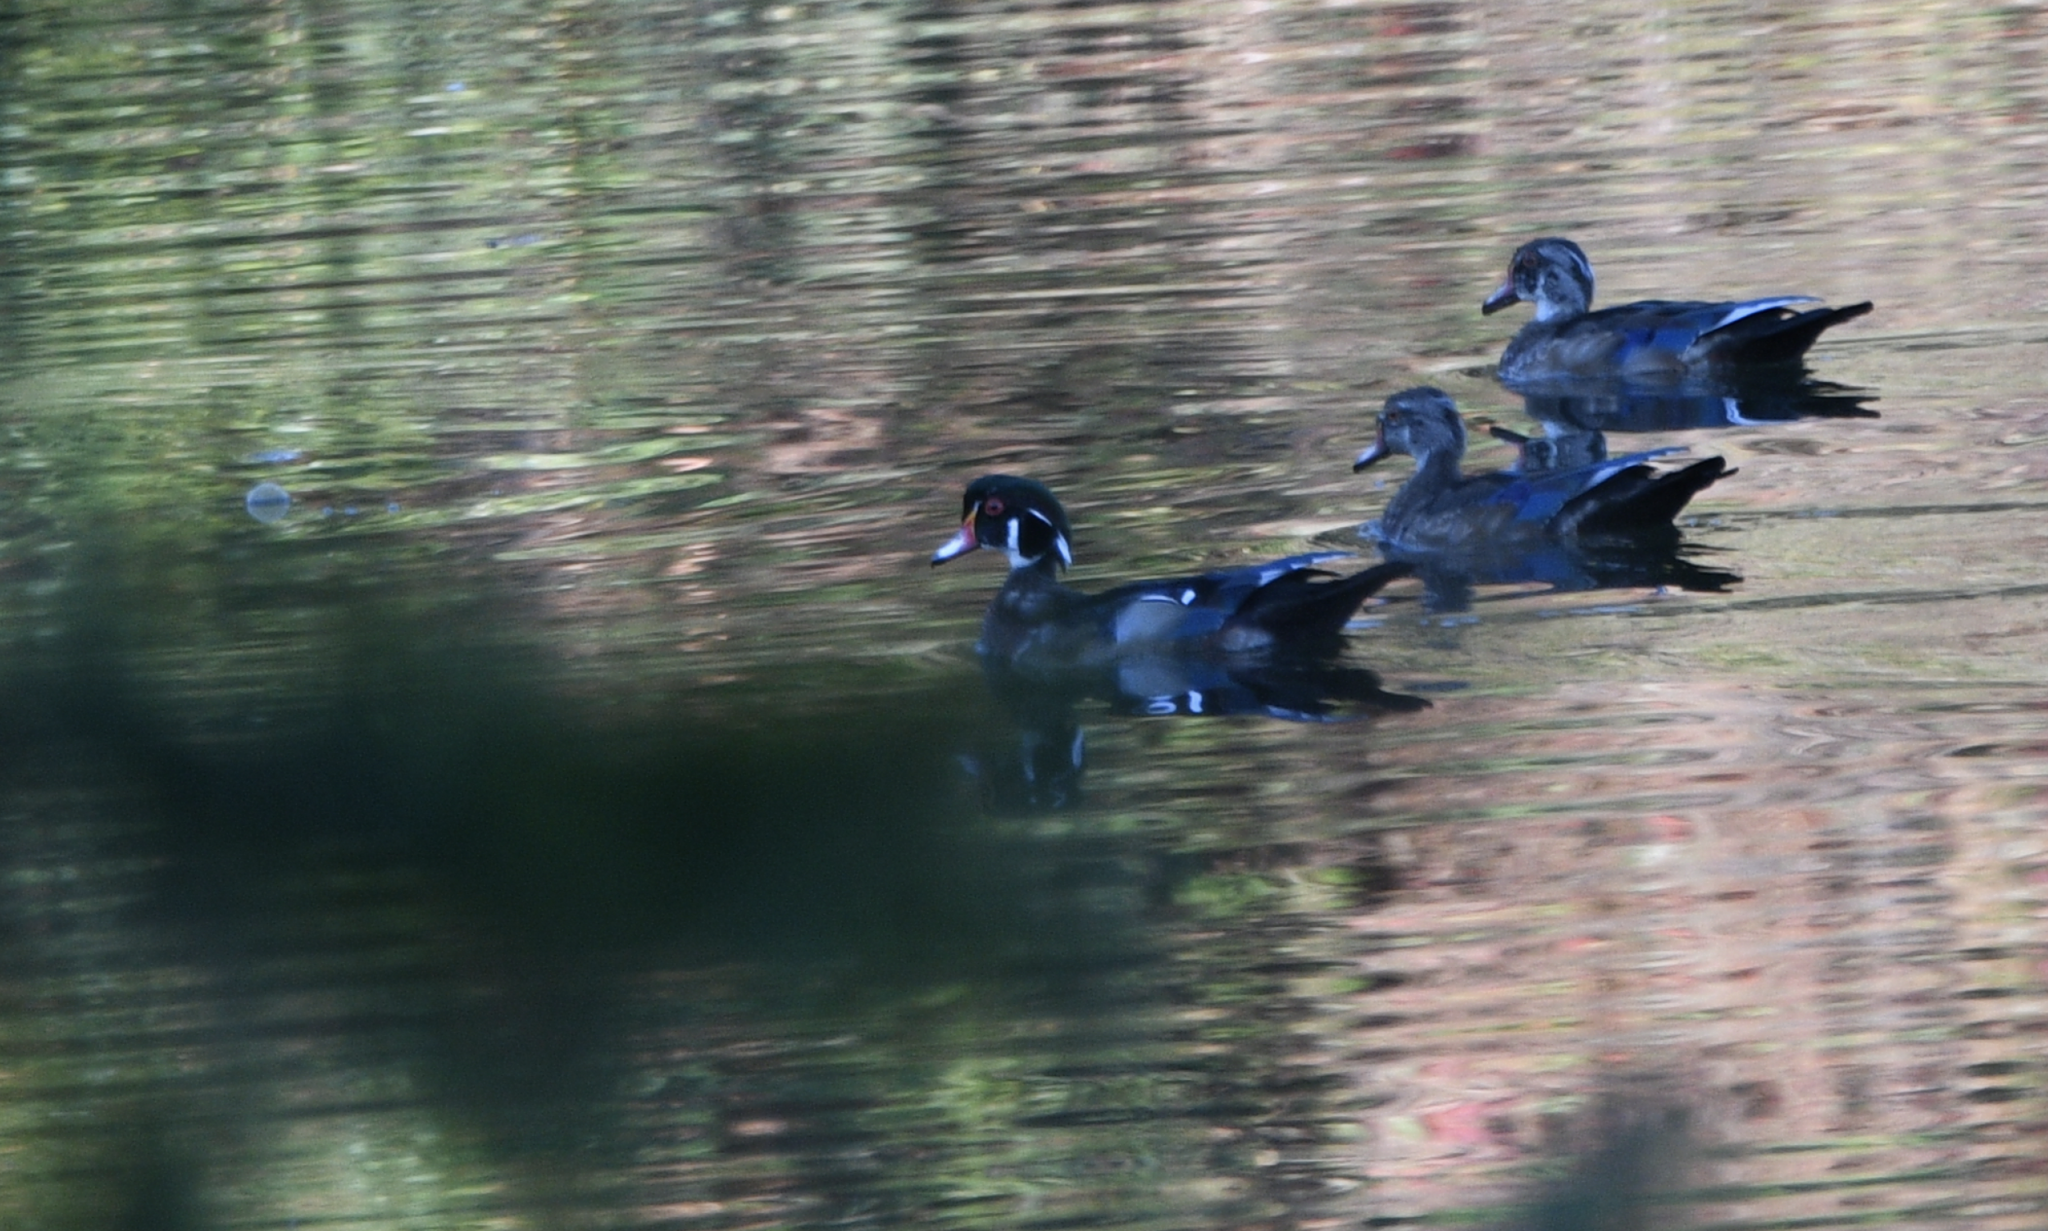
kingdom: Animalia
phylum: Chordata
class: Aves
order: Anseriformes
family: Anatidae
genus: Aix
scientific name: Aix sponsa
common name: Wood duck
